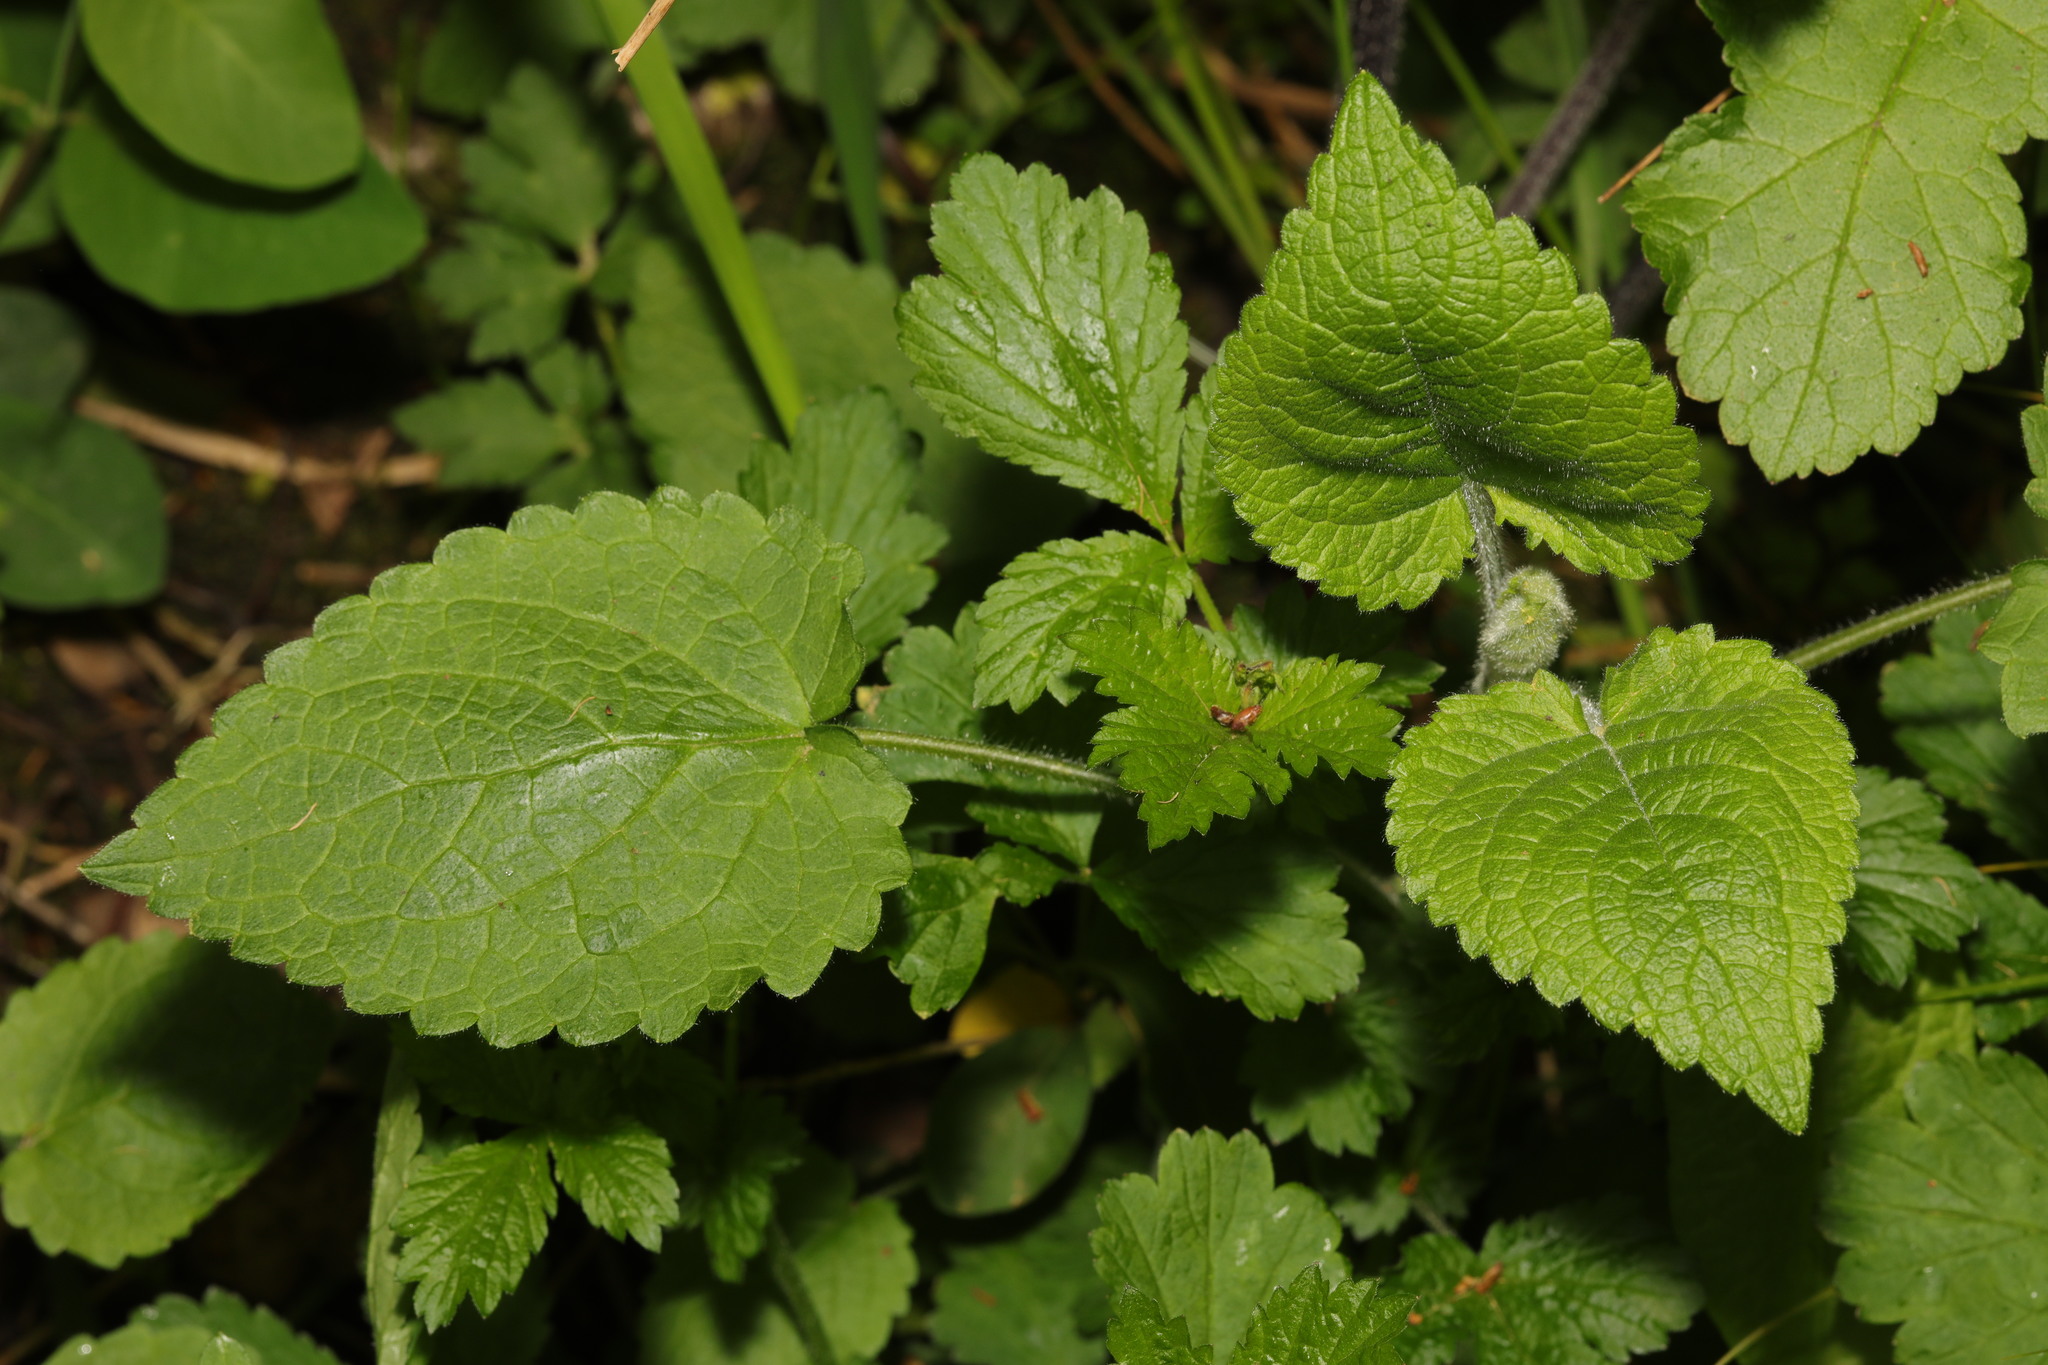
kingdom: Plantae
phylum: Tracheophyta
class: Magnoliopsida
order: Lamiales
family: Lamiaceae
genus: Stachys
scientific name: Stachys sylvatica
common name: Hedge woundwort
